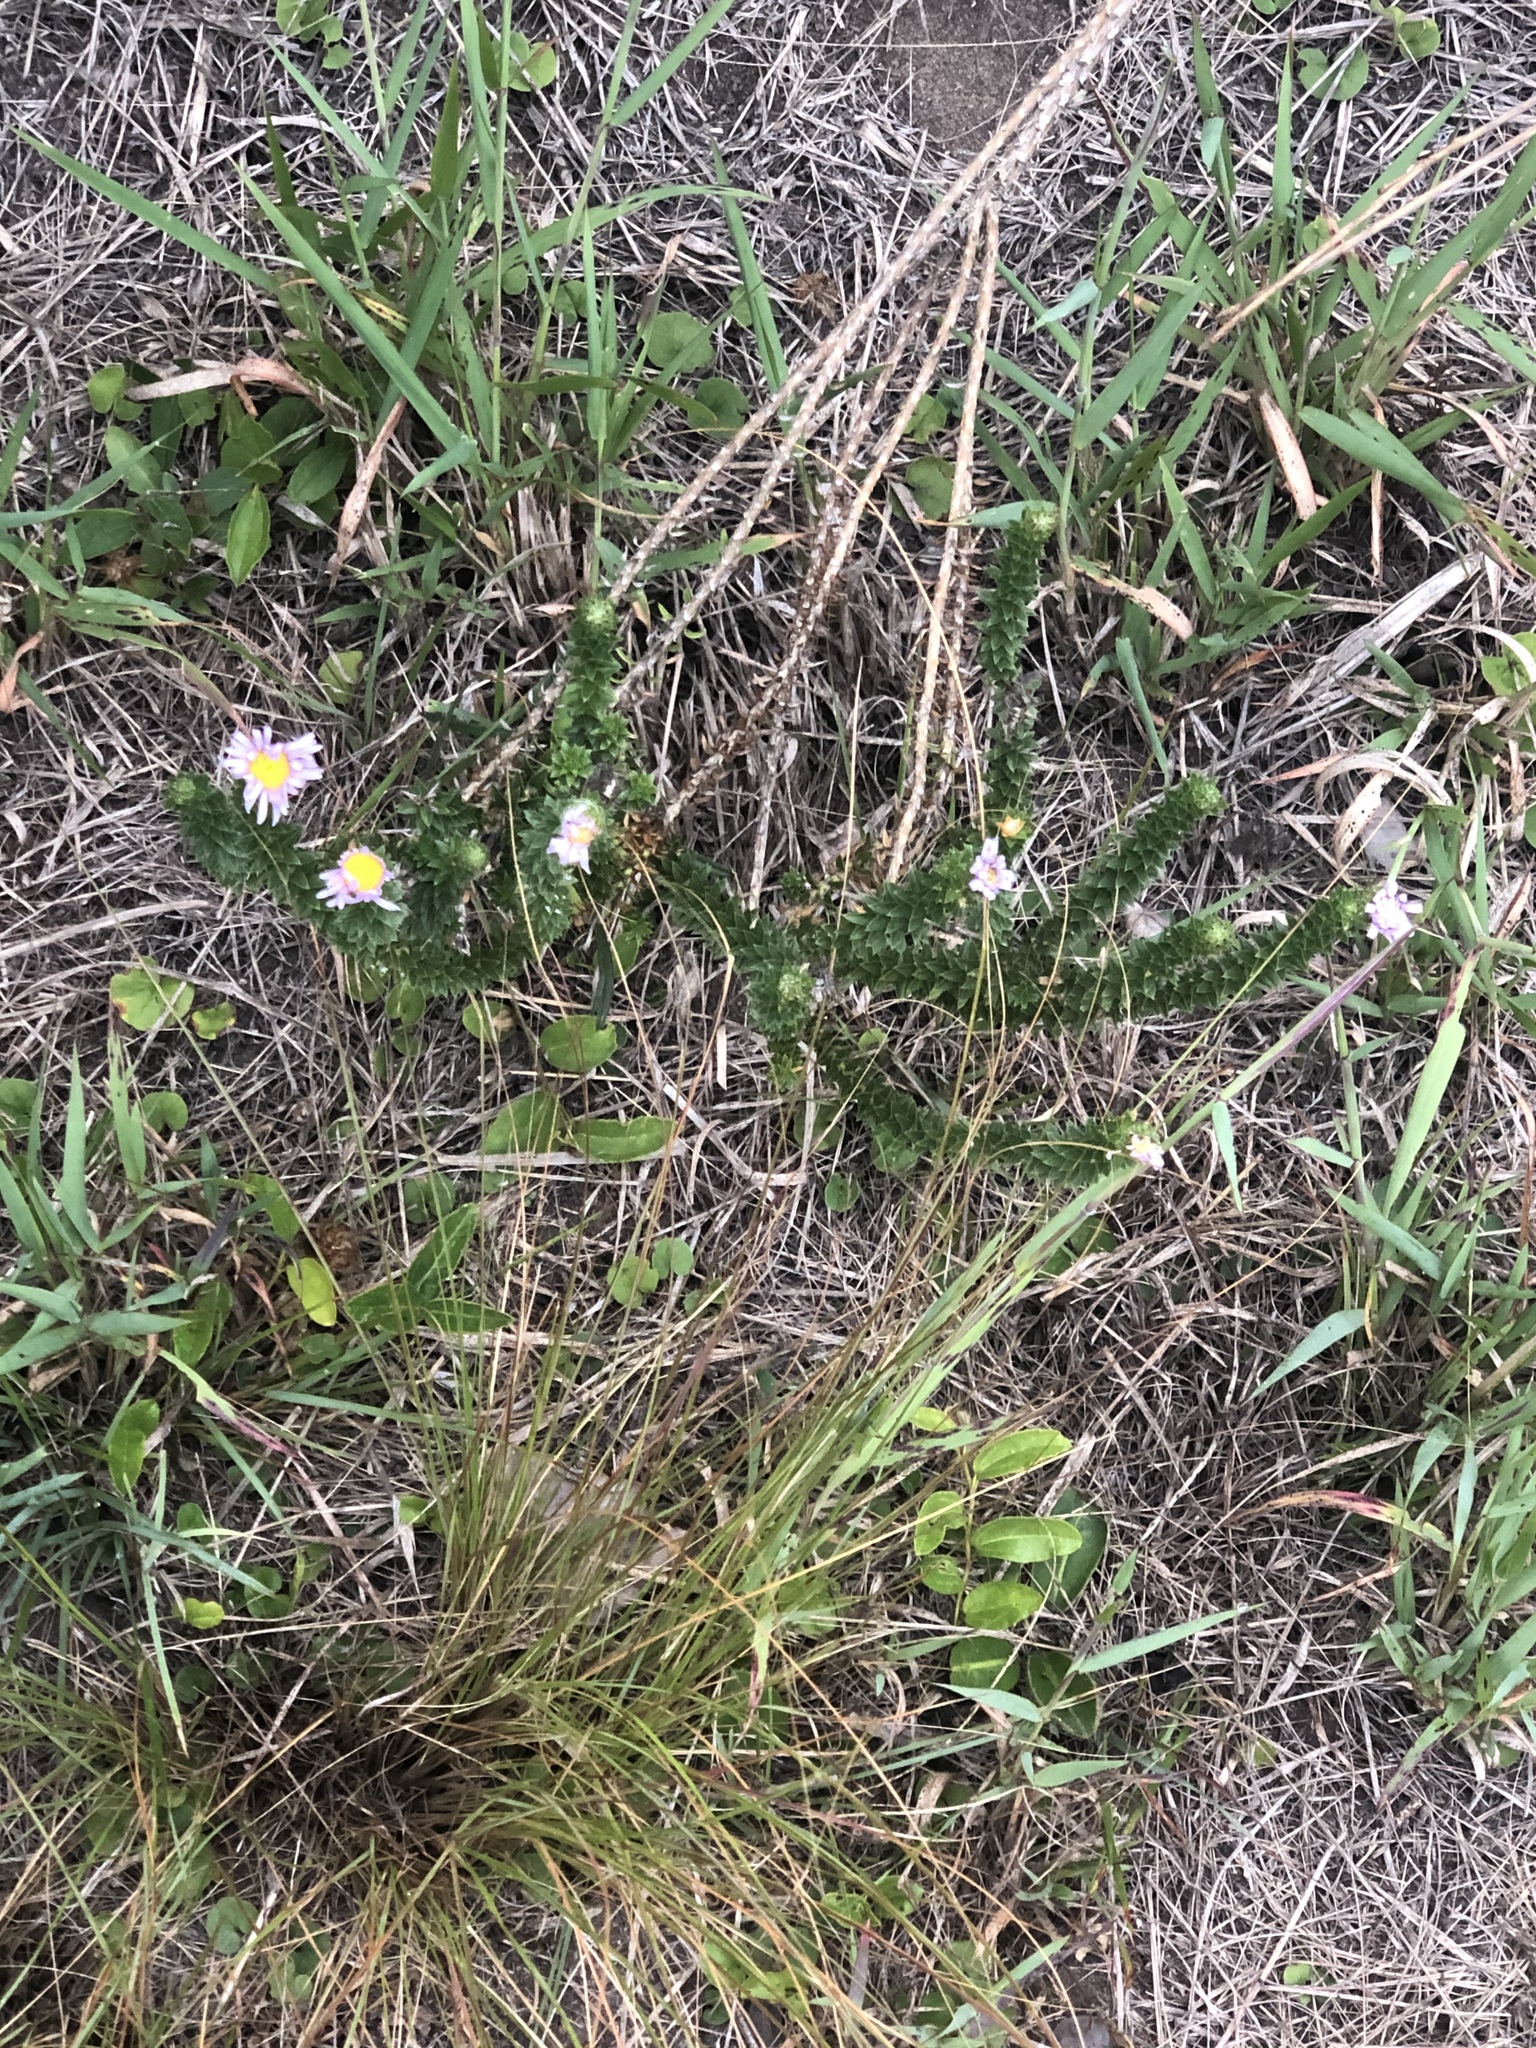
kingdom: Plantae
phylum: Tracheophyta
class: Magnoliopsida
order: Asterales
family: Asteraceae
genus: Felicia
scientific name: Felicia echinata
